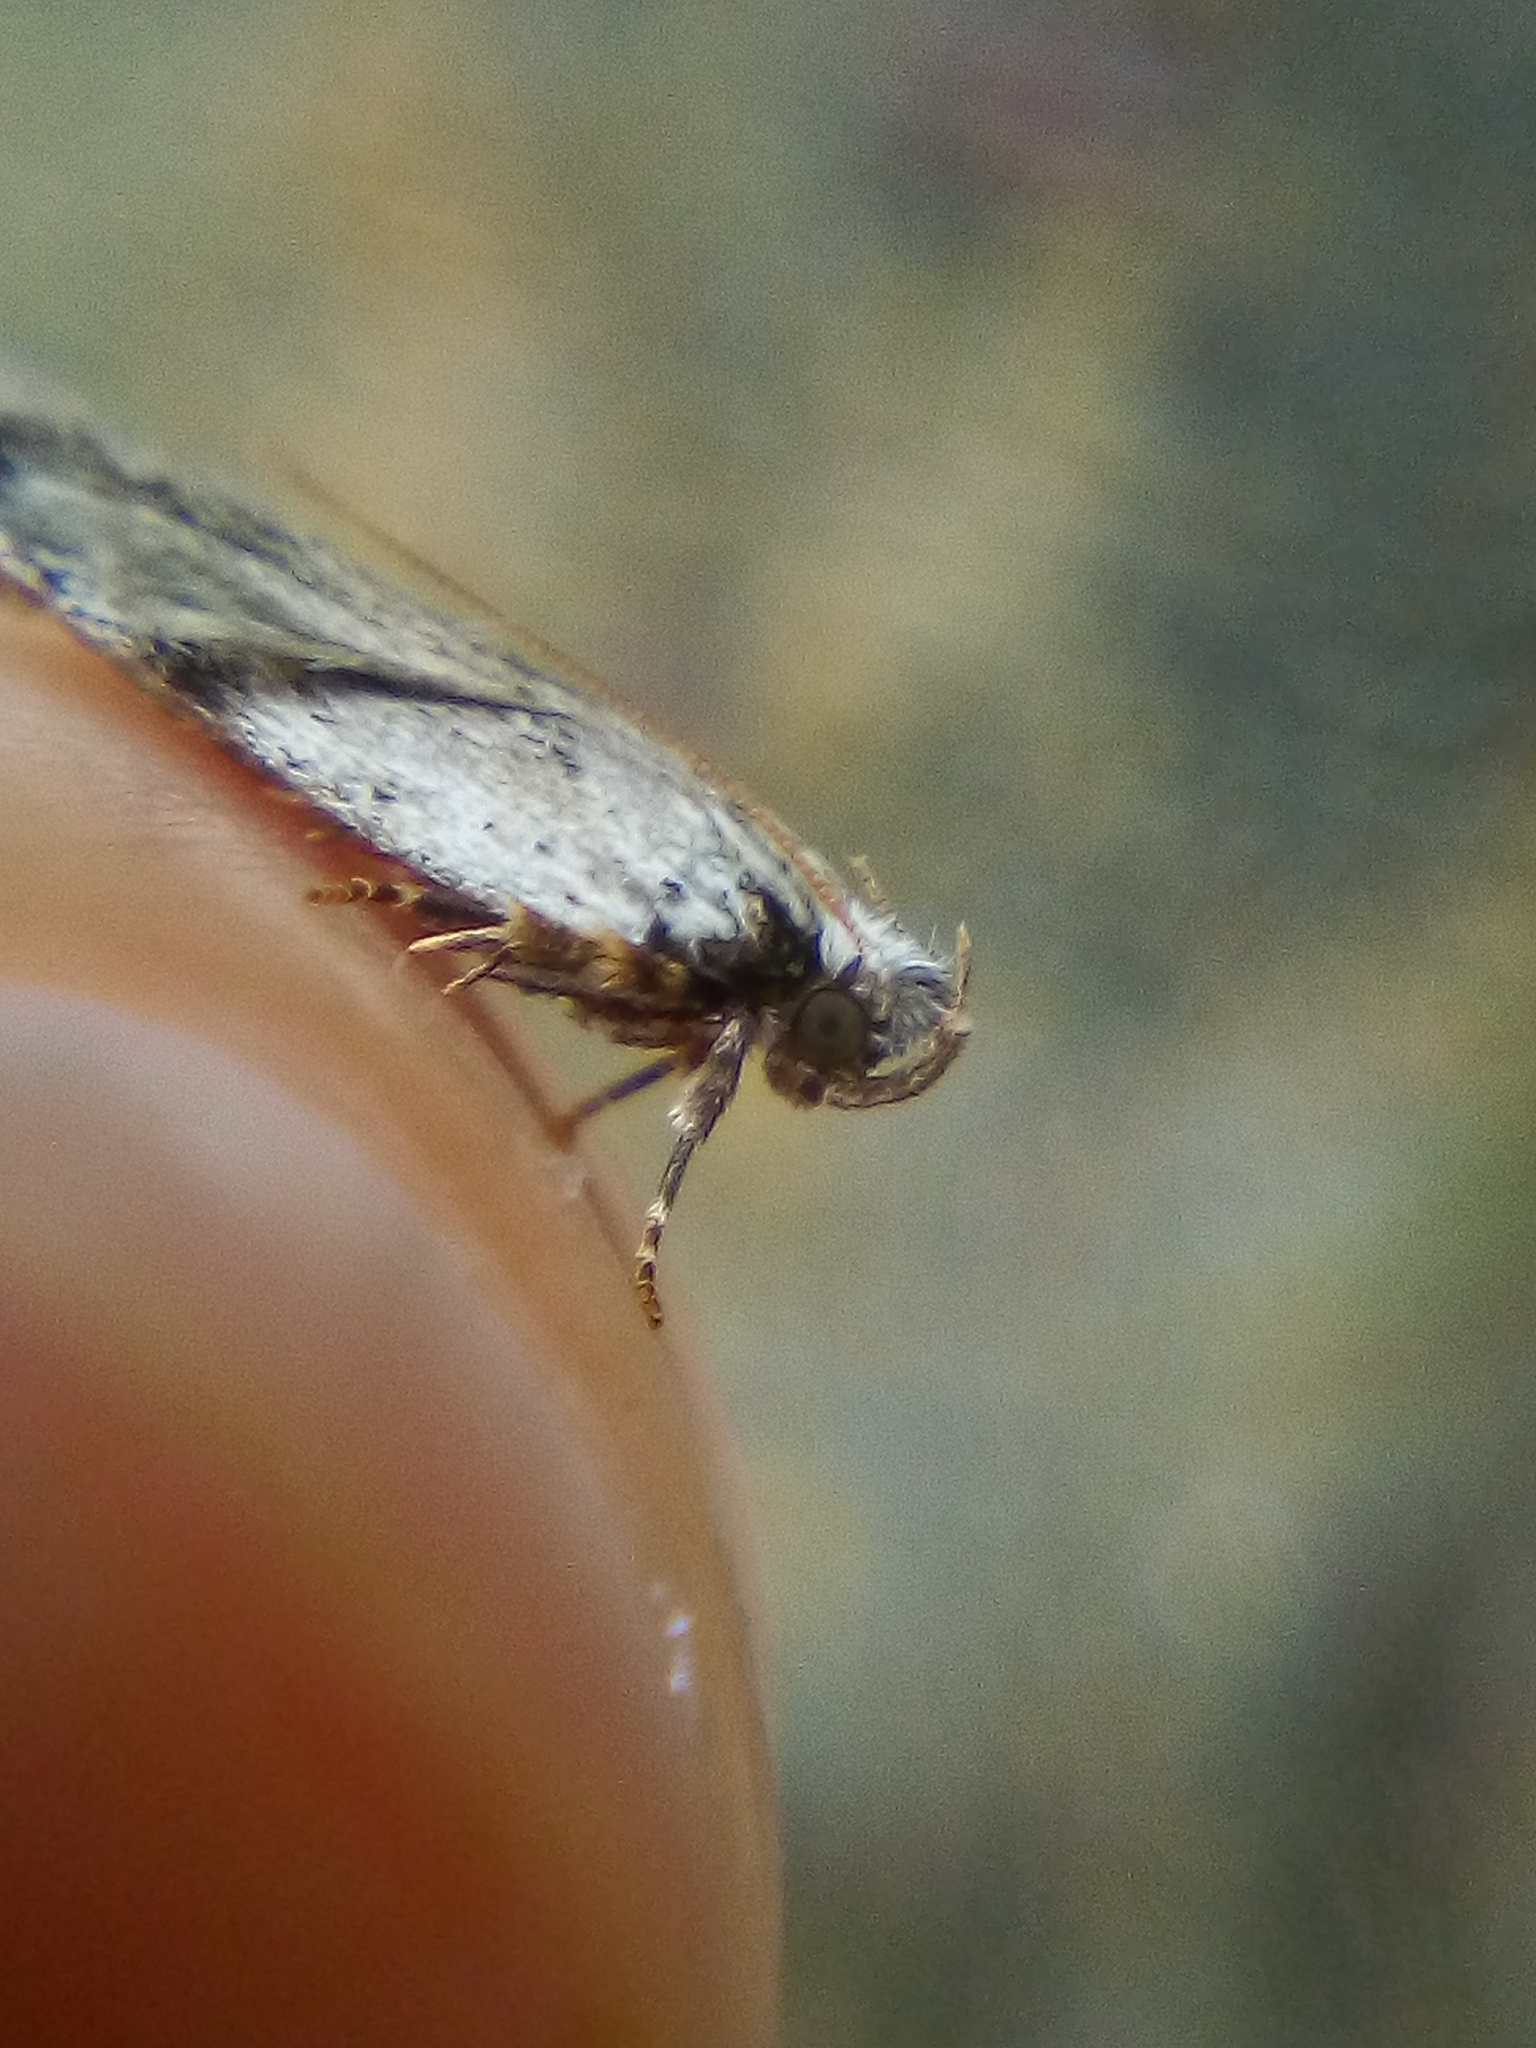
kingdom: Animalia
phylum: Arthropoda
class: Insecta
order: Lepidoptera
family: Depressariidae
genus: Phaeosaces
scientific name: Phaeosaces compsotypa
